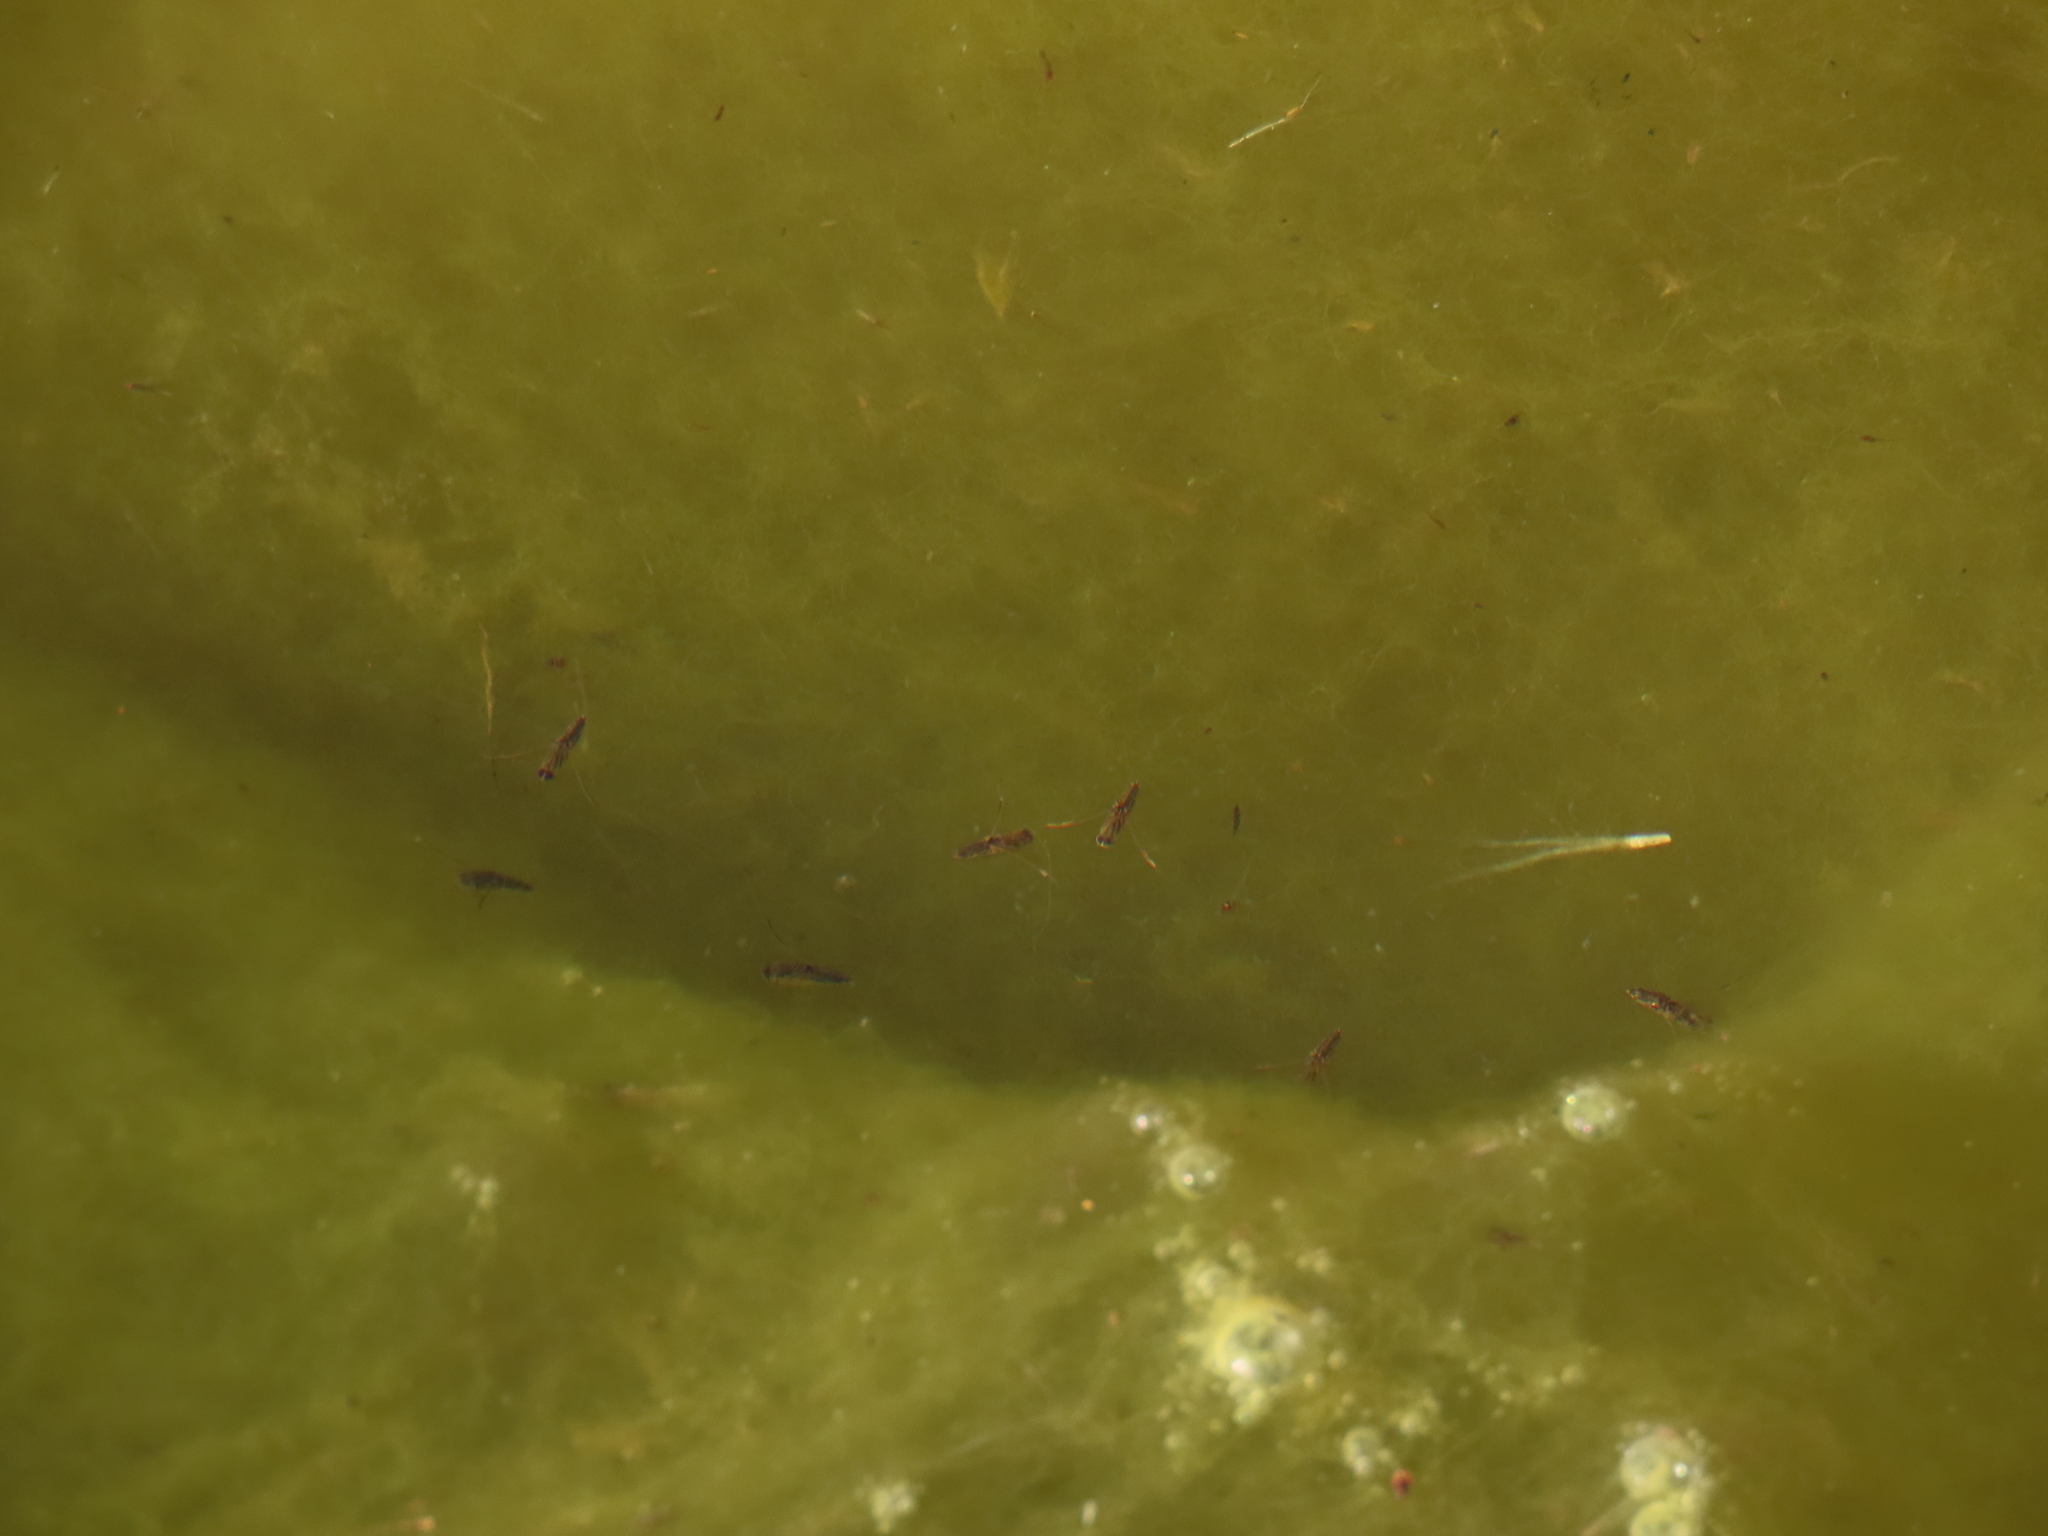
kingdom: Animalia
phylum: Arthropoda
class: Insecta
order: Hemiptera
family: Notonectidae
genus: Buenoa
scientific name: Buenoa
